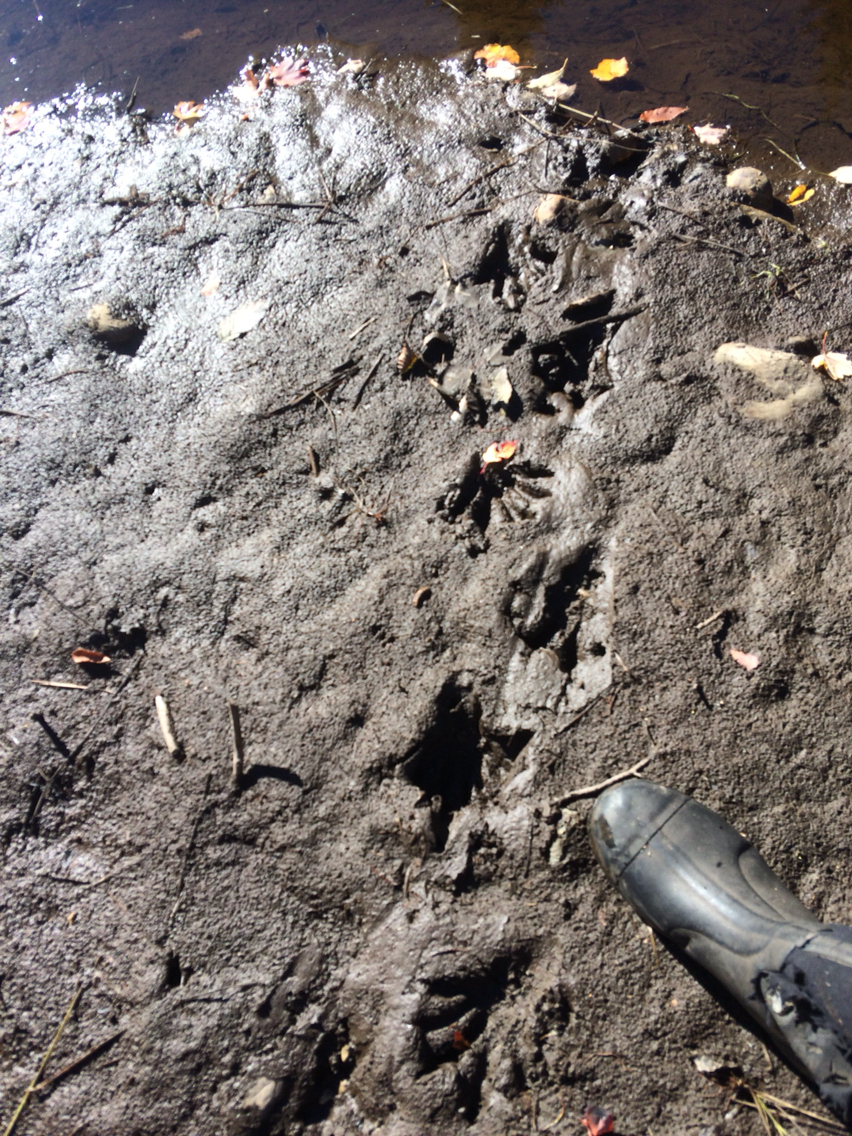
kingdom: Animalia
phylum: Chordata
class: Mammalia
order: Rodentia
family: Castoridae
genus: Castor
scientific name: Castor canadensis
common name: American beaver
